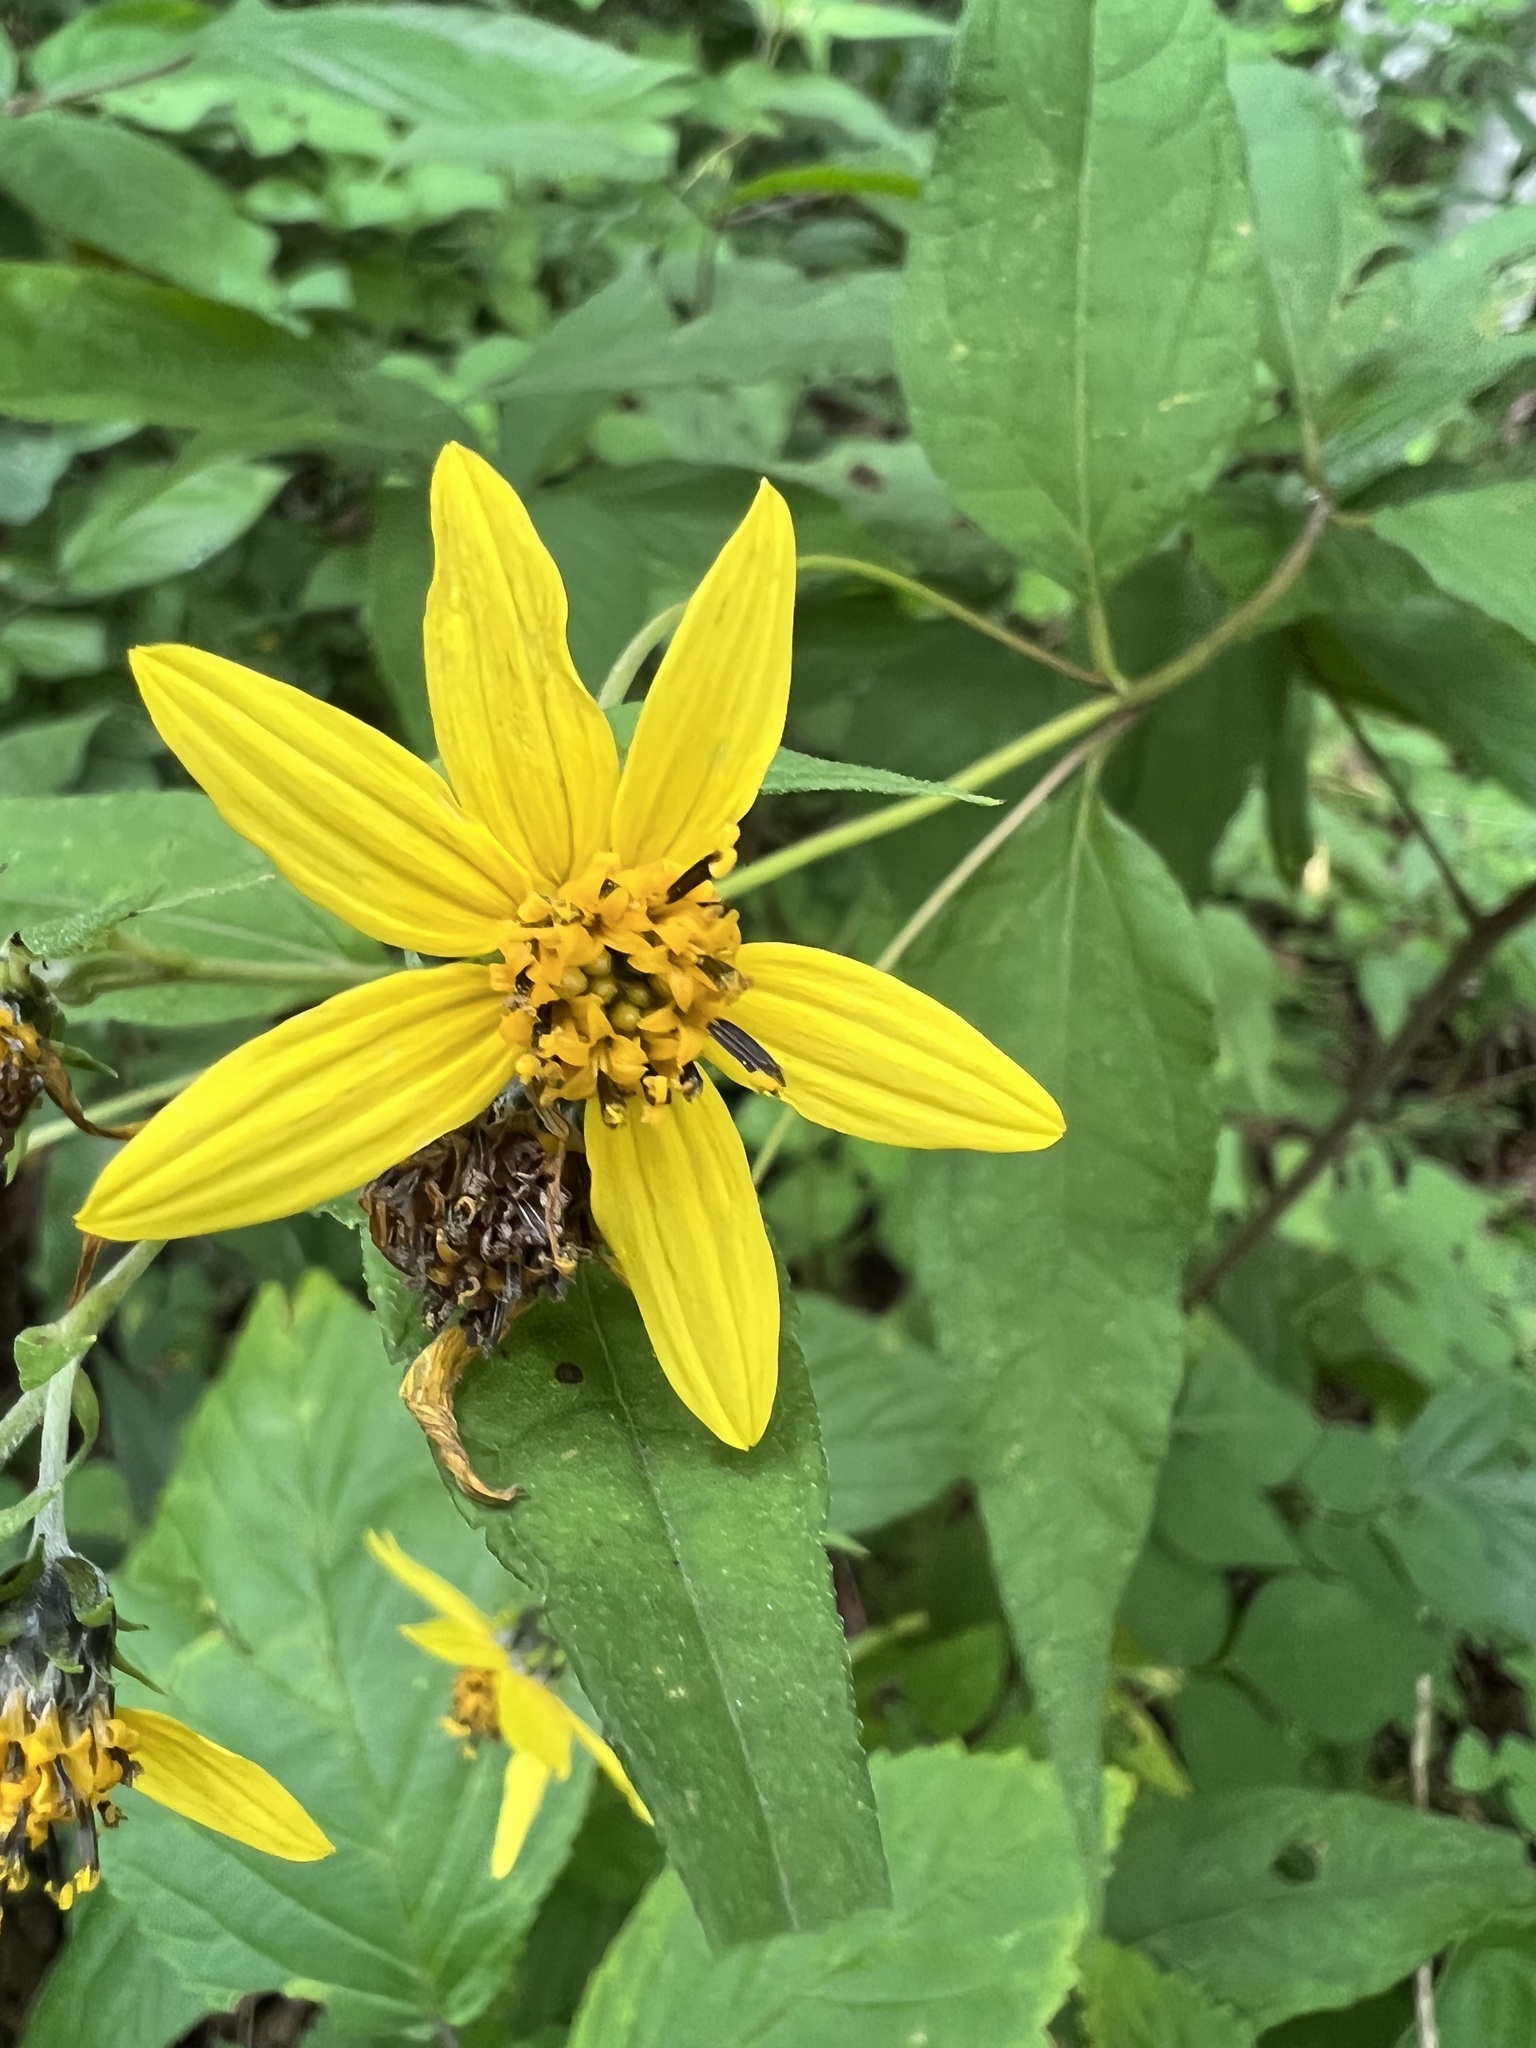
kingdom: Plantae
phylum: Tracheophyta
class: Magnoliopsida
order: Asterales
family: Asteraceae
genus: Helianthus
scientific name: Helianthus decapetalus
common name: Thin-leaved sunflower
